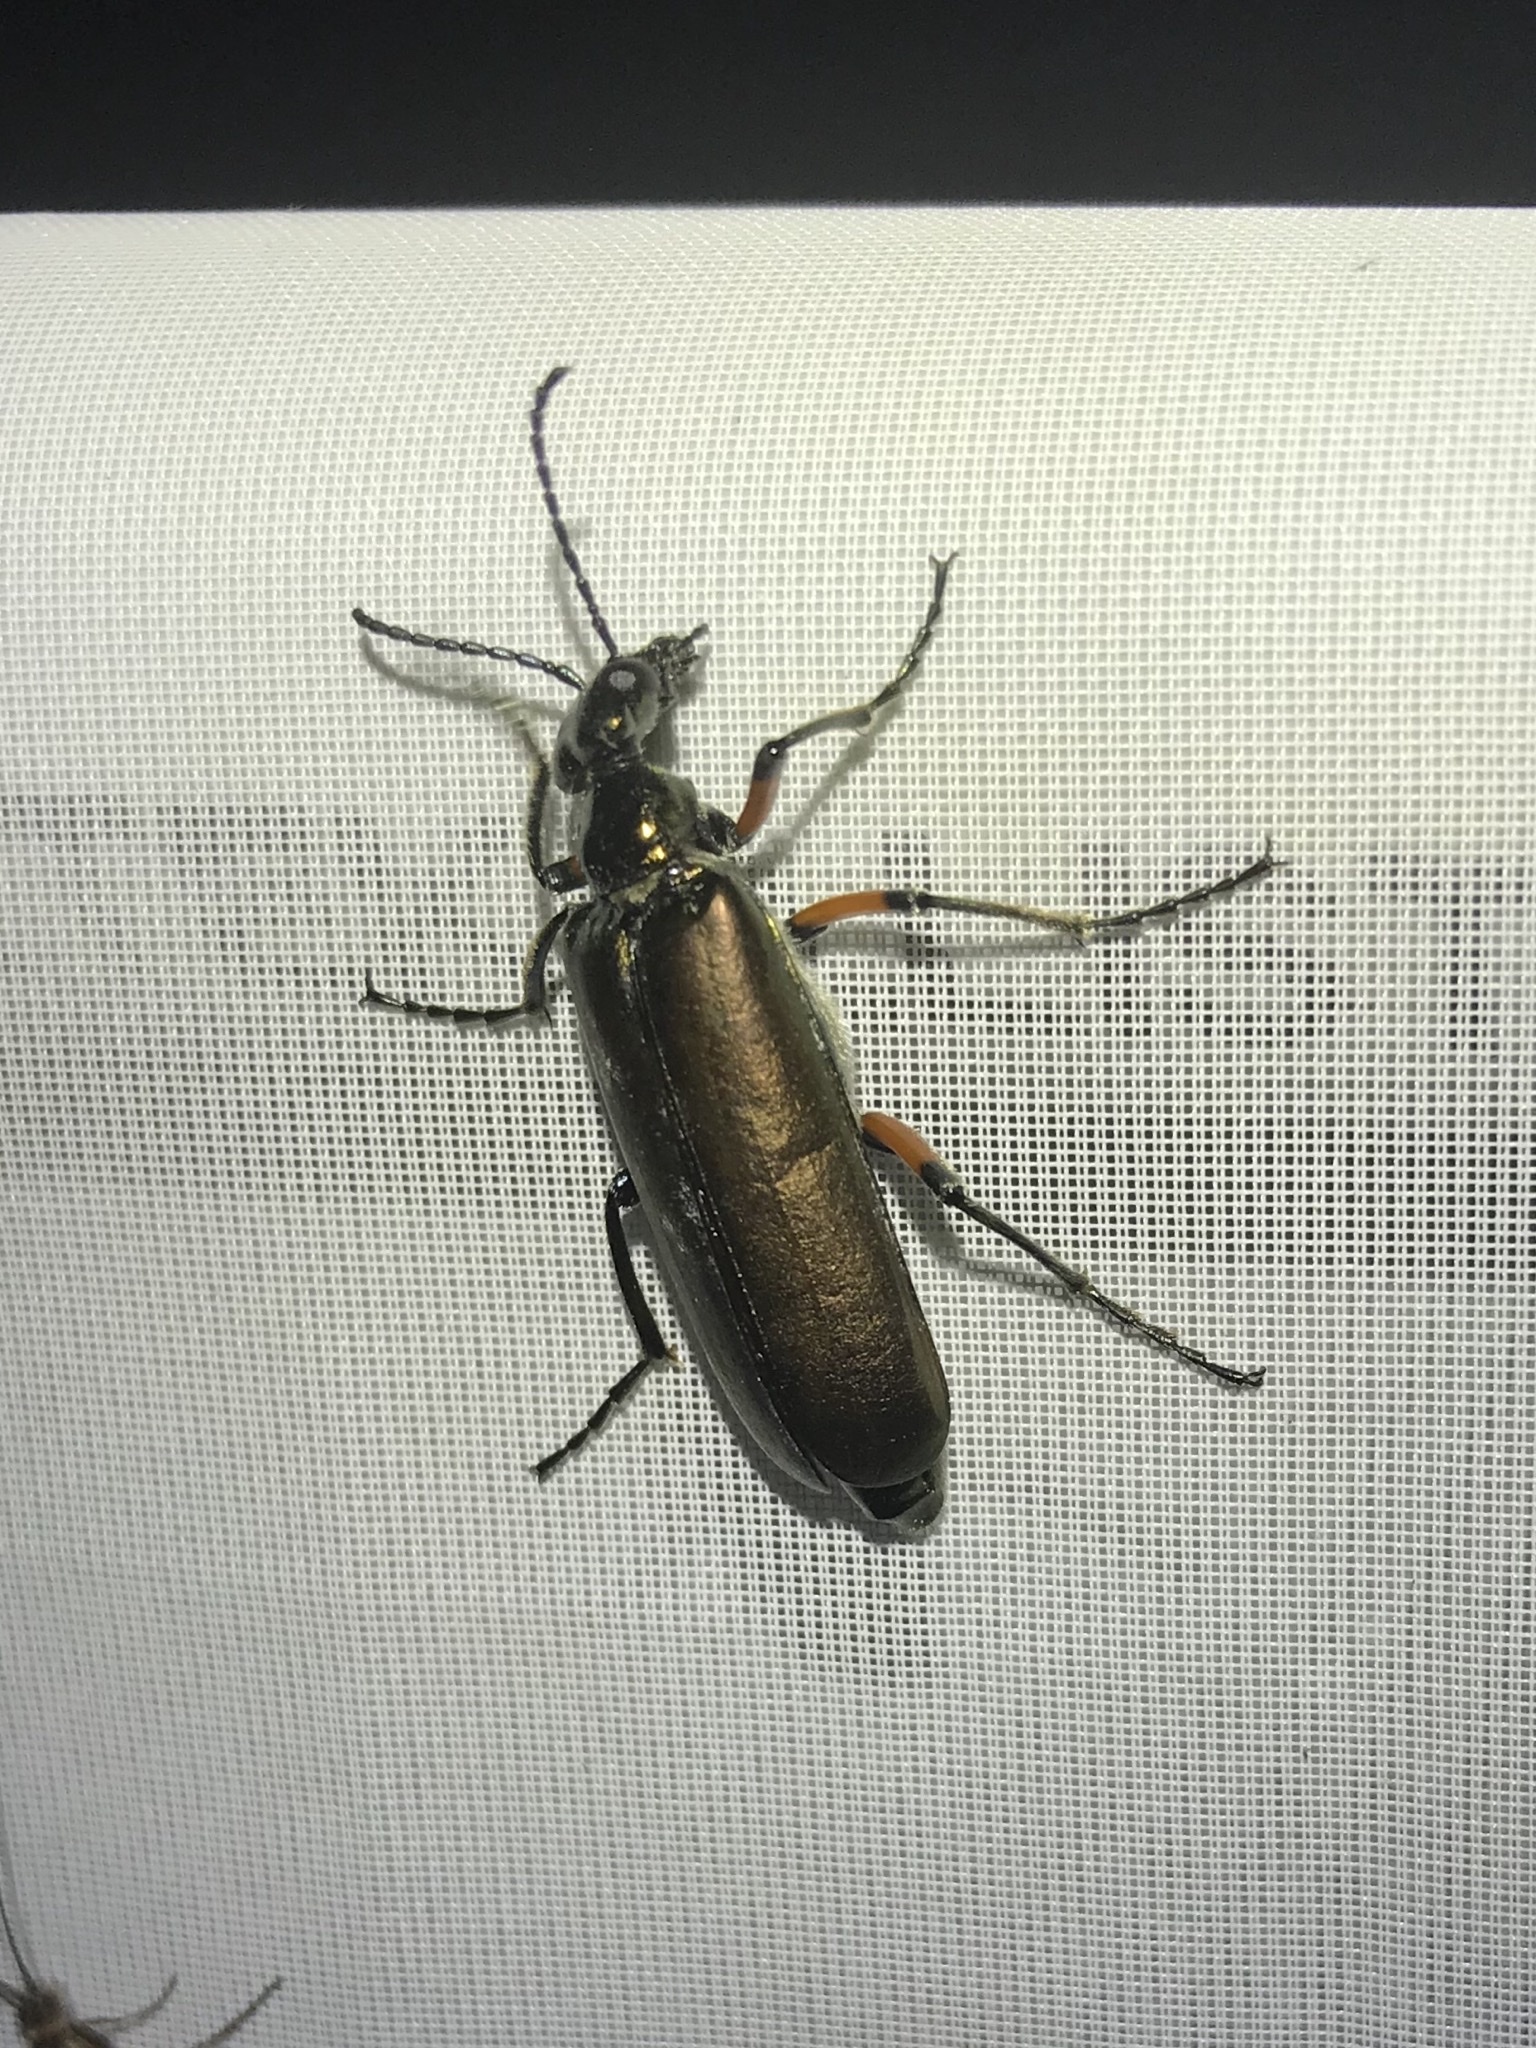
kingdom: Animalia
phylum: Arthropoda
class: Insecta
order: Coleoptera
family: Meloidae
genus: Lytta
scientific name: Lytta polita
